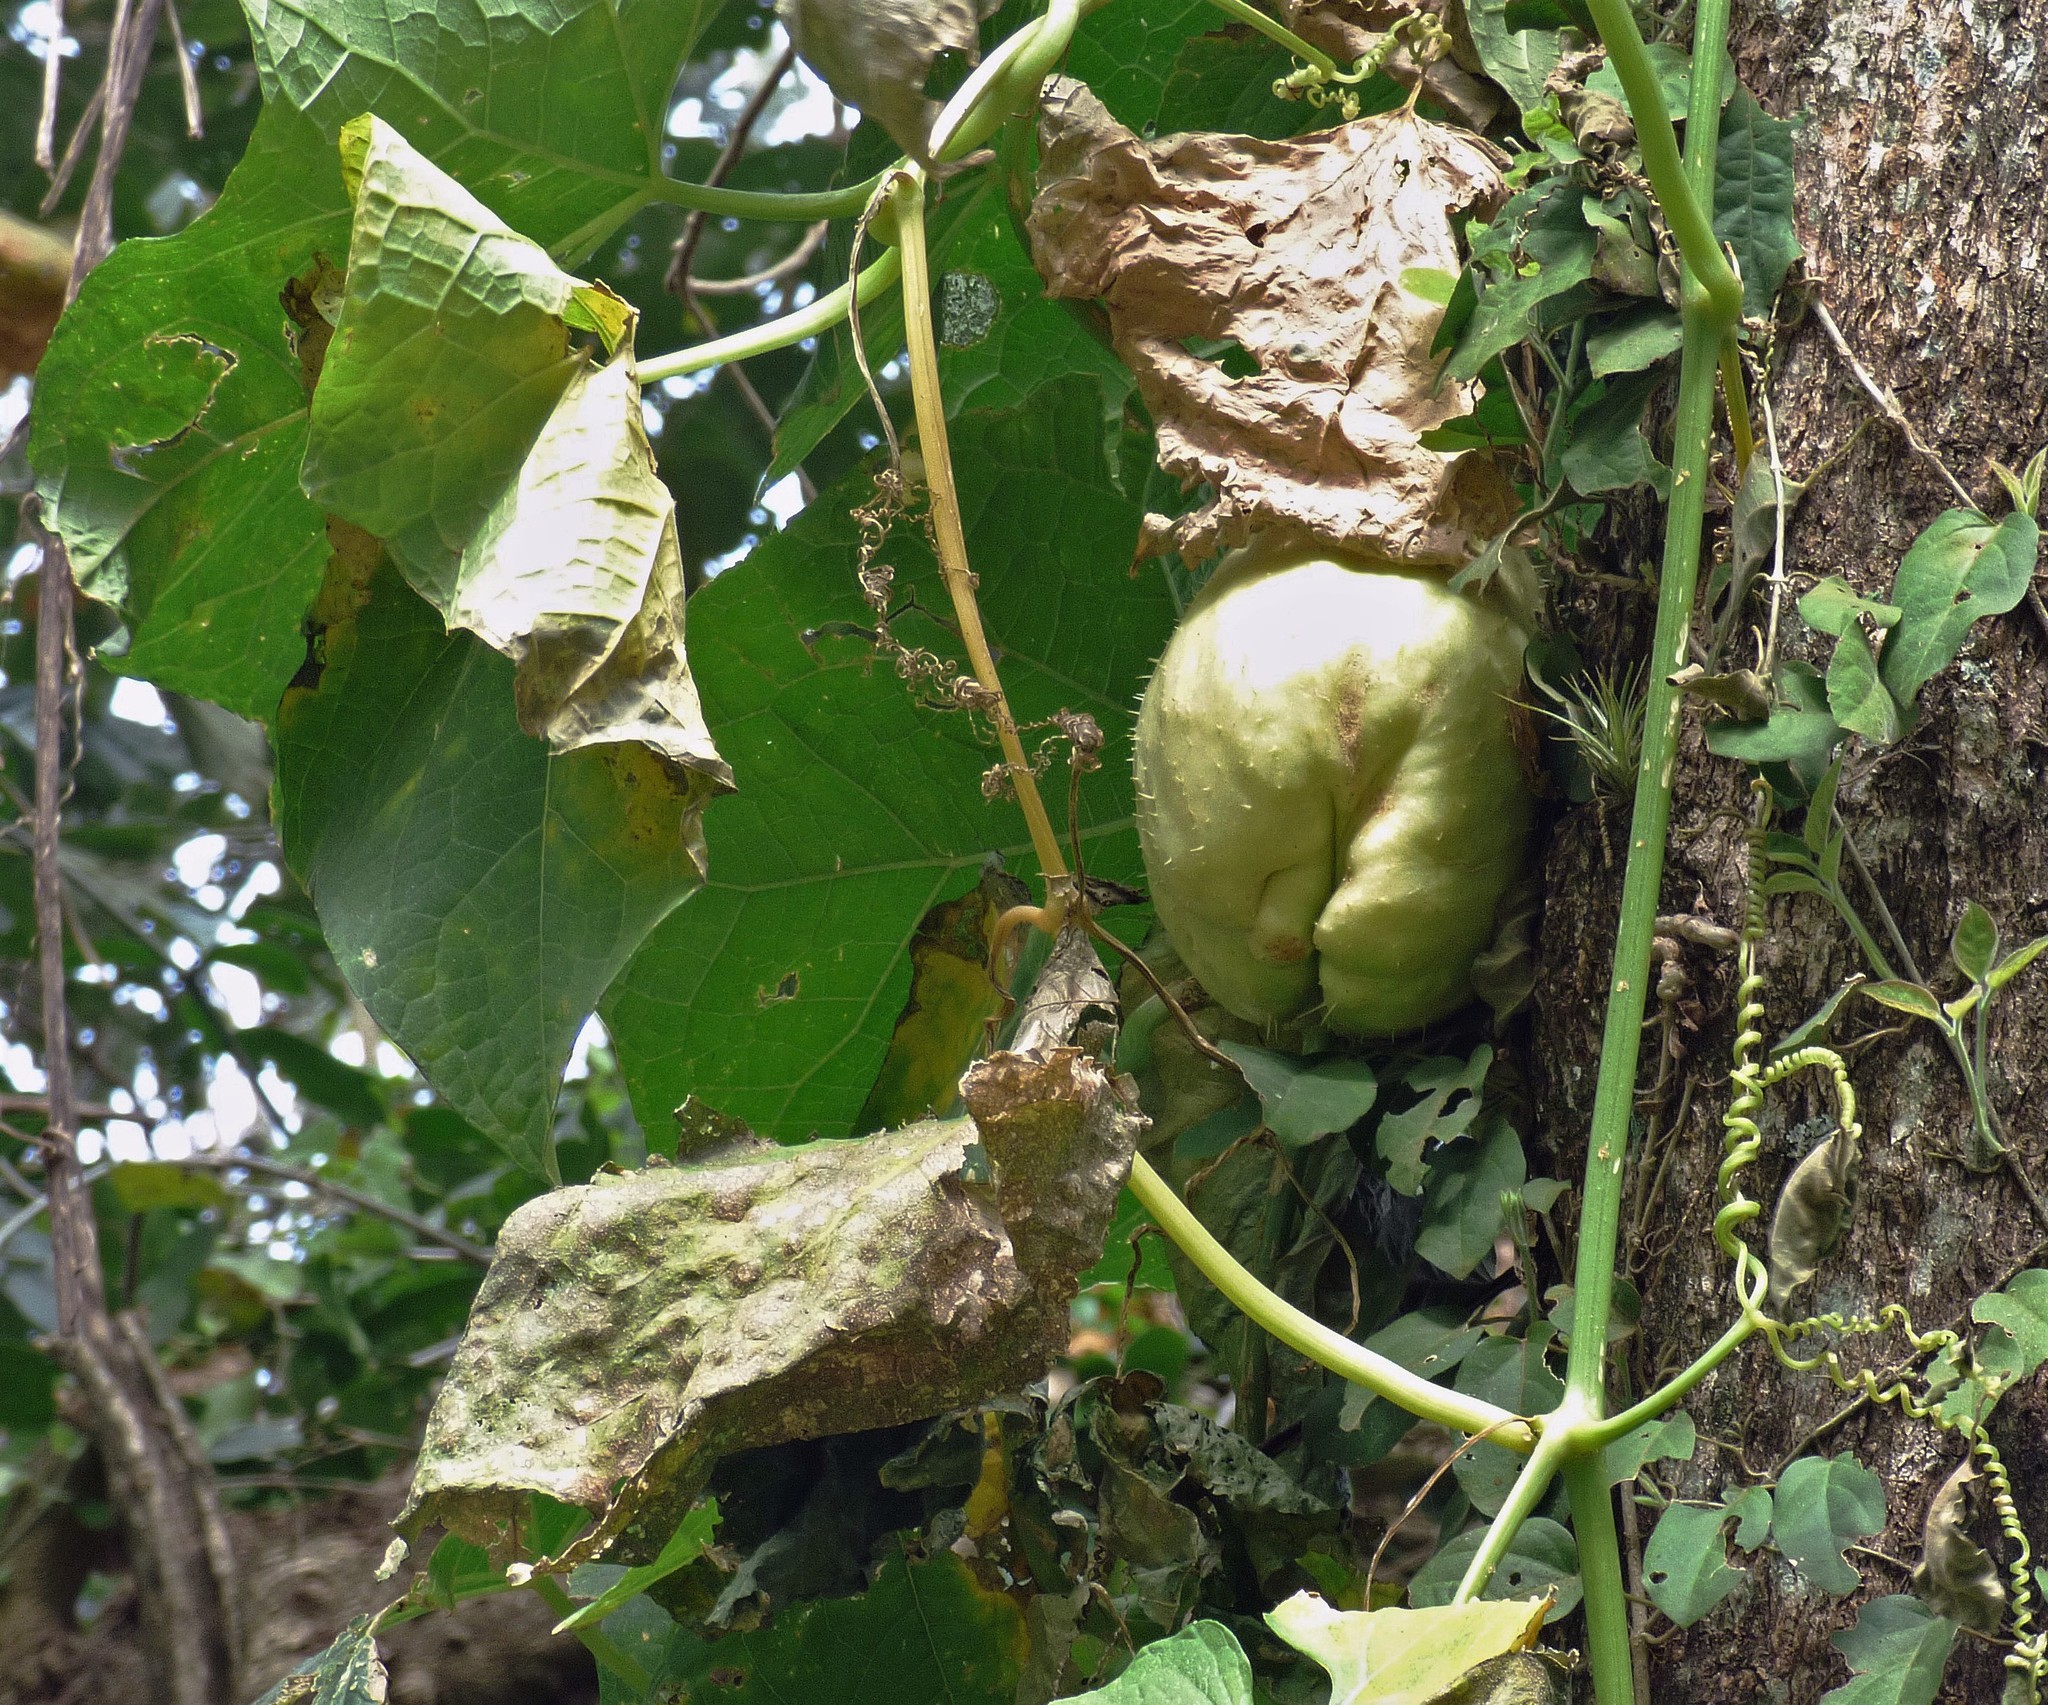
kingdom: Plantae
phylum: Tracheophyta
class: Magnoliopsida
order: Cucurbitales
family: Cucurbitaceae
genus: Sechium
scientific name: Sechium edule
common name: Chayote
